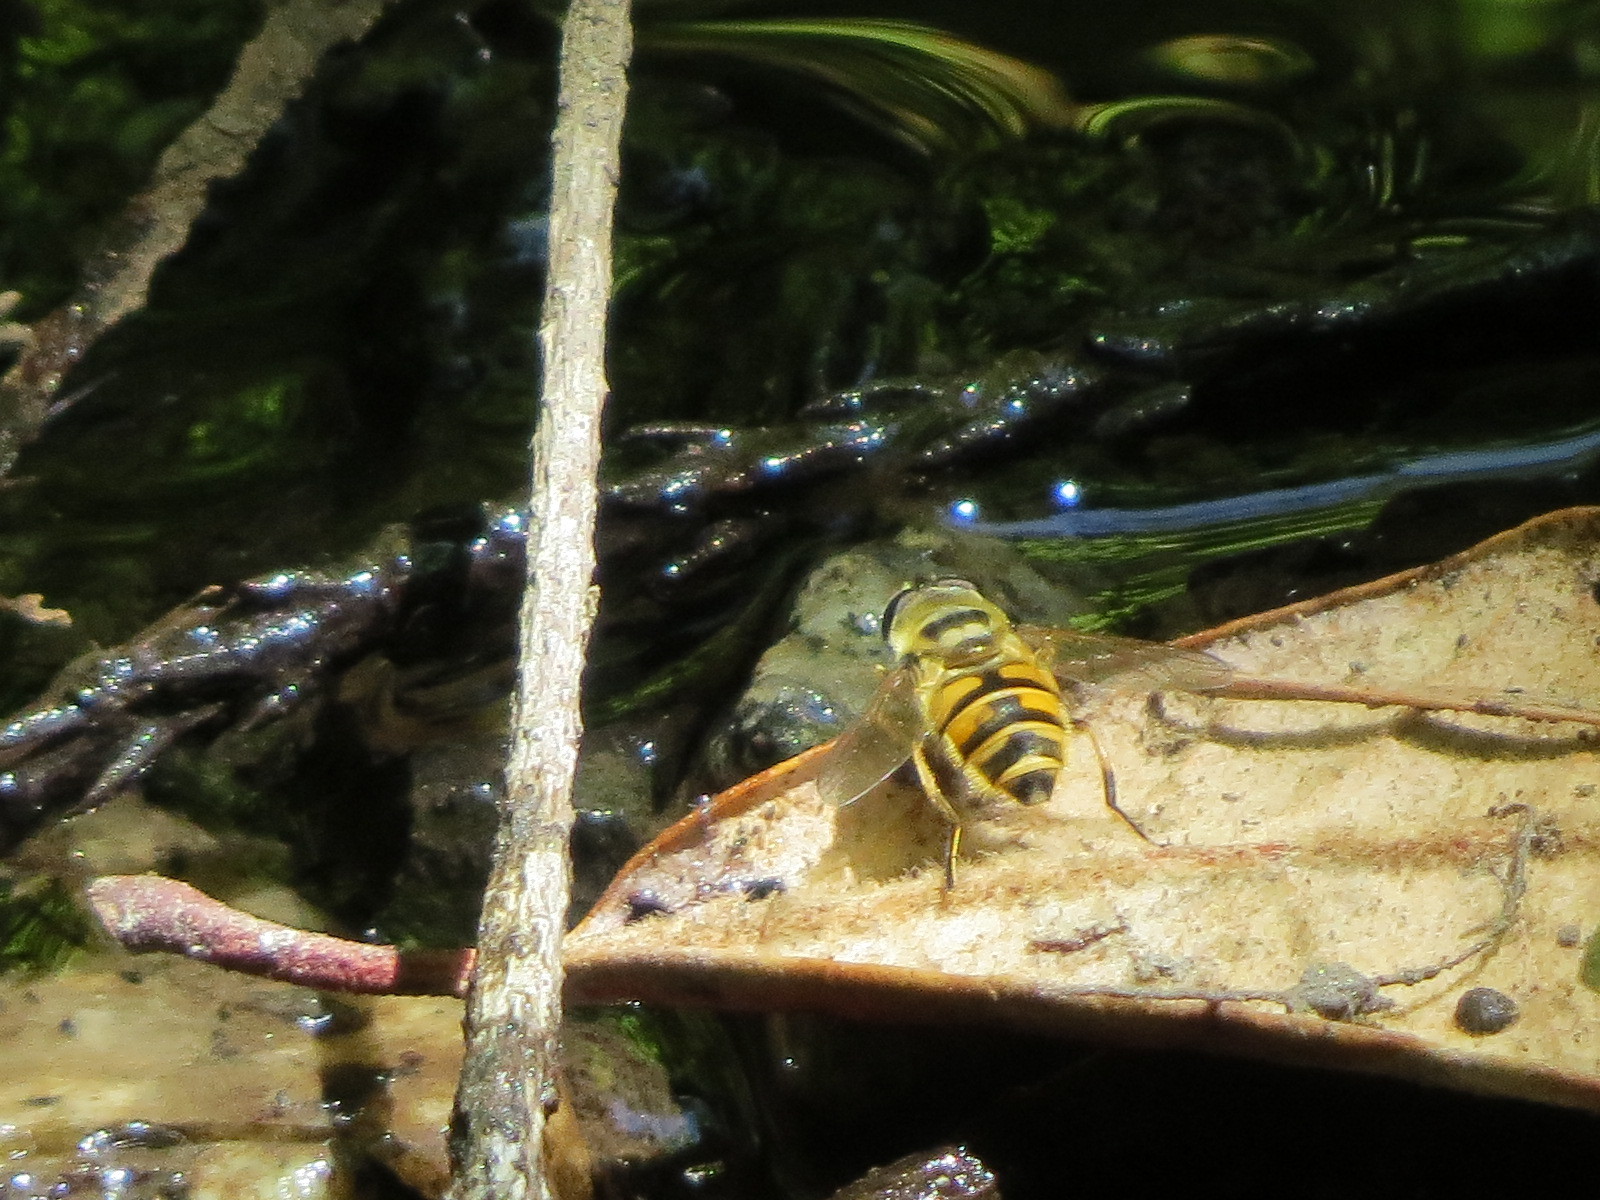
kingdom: Animalia
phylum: Arthropoda
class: Insecta
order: Diptera
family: Syrphidae
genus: Myathropa
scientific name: Myathropa florea
